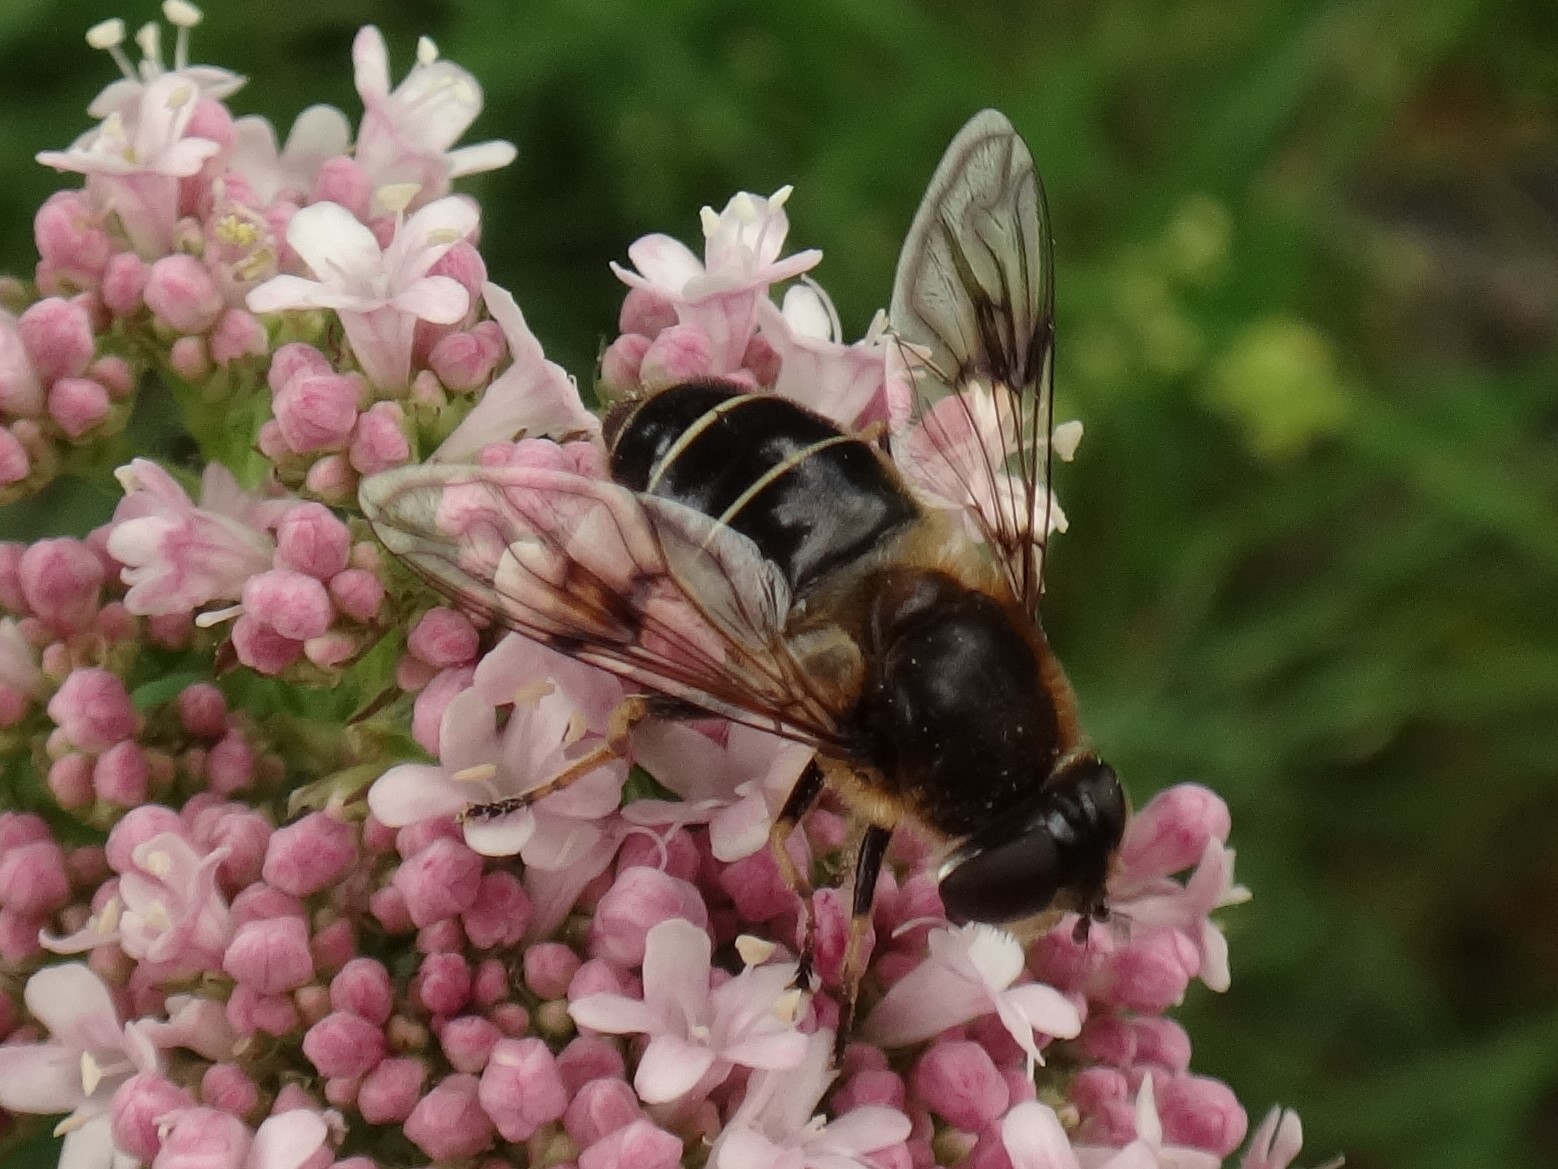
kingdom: Animalia
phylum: Arthropoda
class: Insecta
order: Diptera
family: Syrphidae
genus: Eristalis
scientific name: Eristalis rupium
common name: Hover fly
